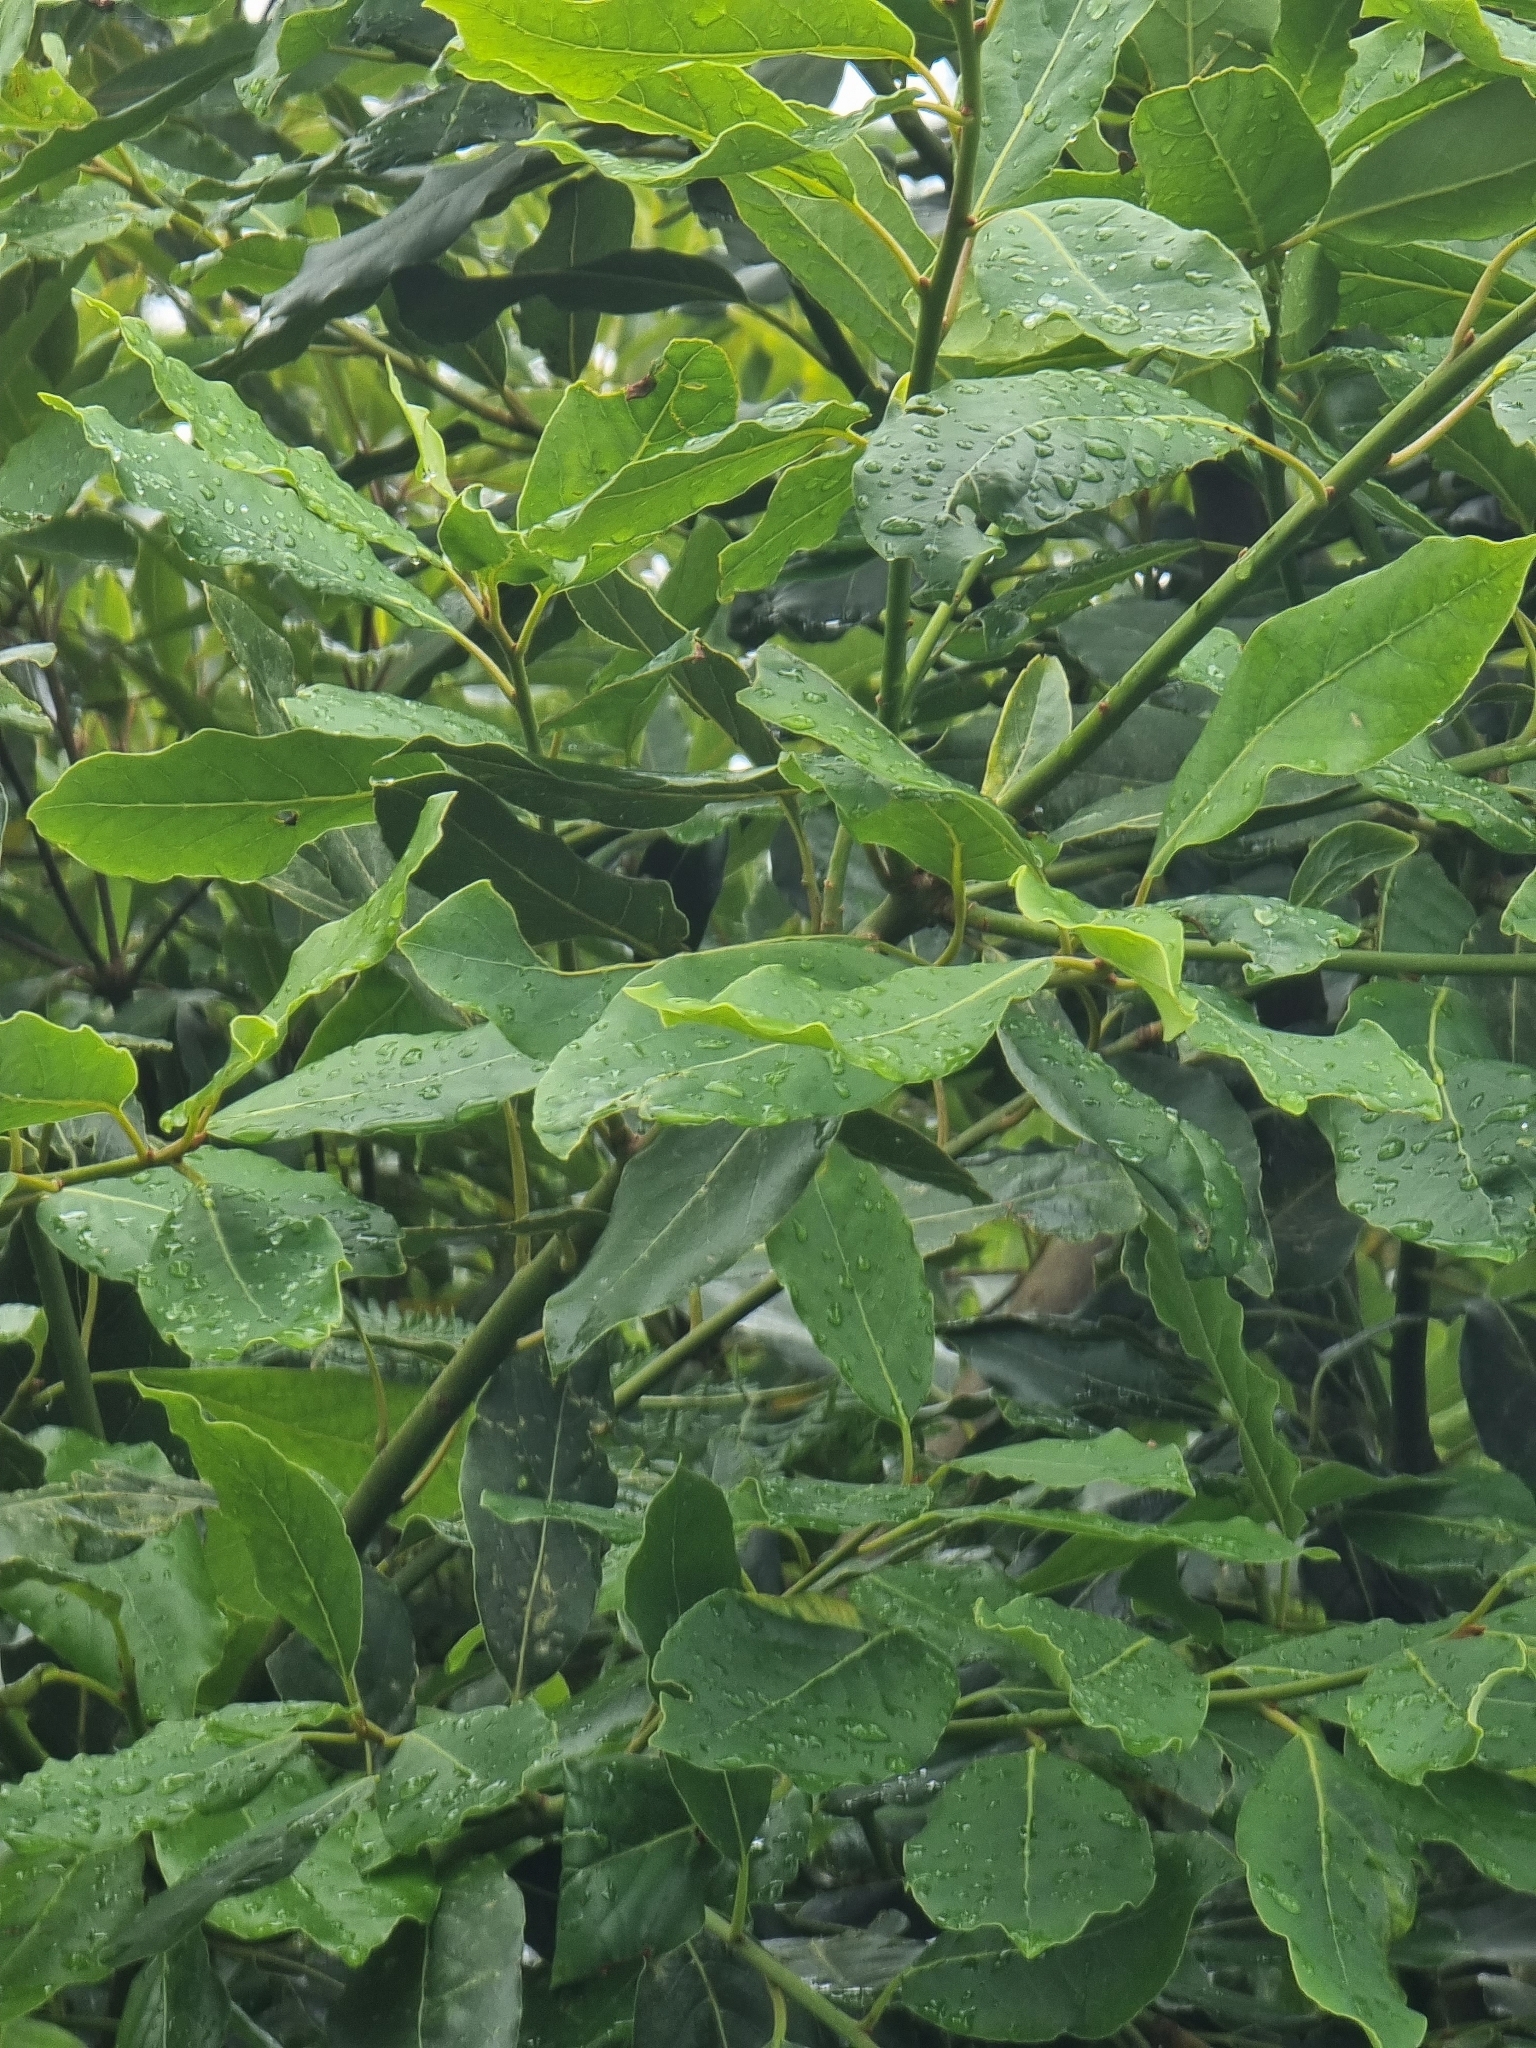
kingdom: Plantae
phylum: Tracheophyta
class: Magnoliopsida
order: Laurales
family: Lauraceae
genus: Laurus
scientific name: Laurus novocanariensis
